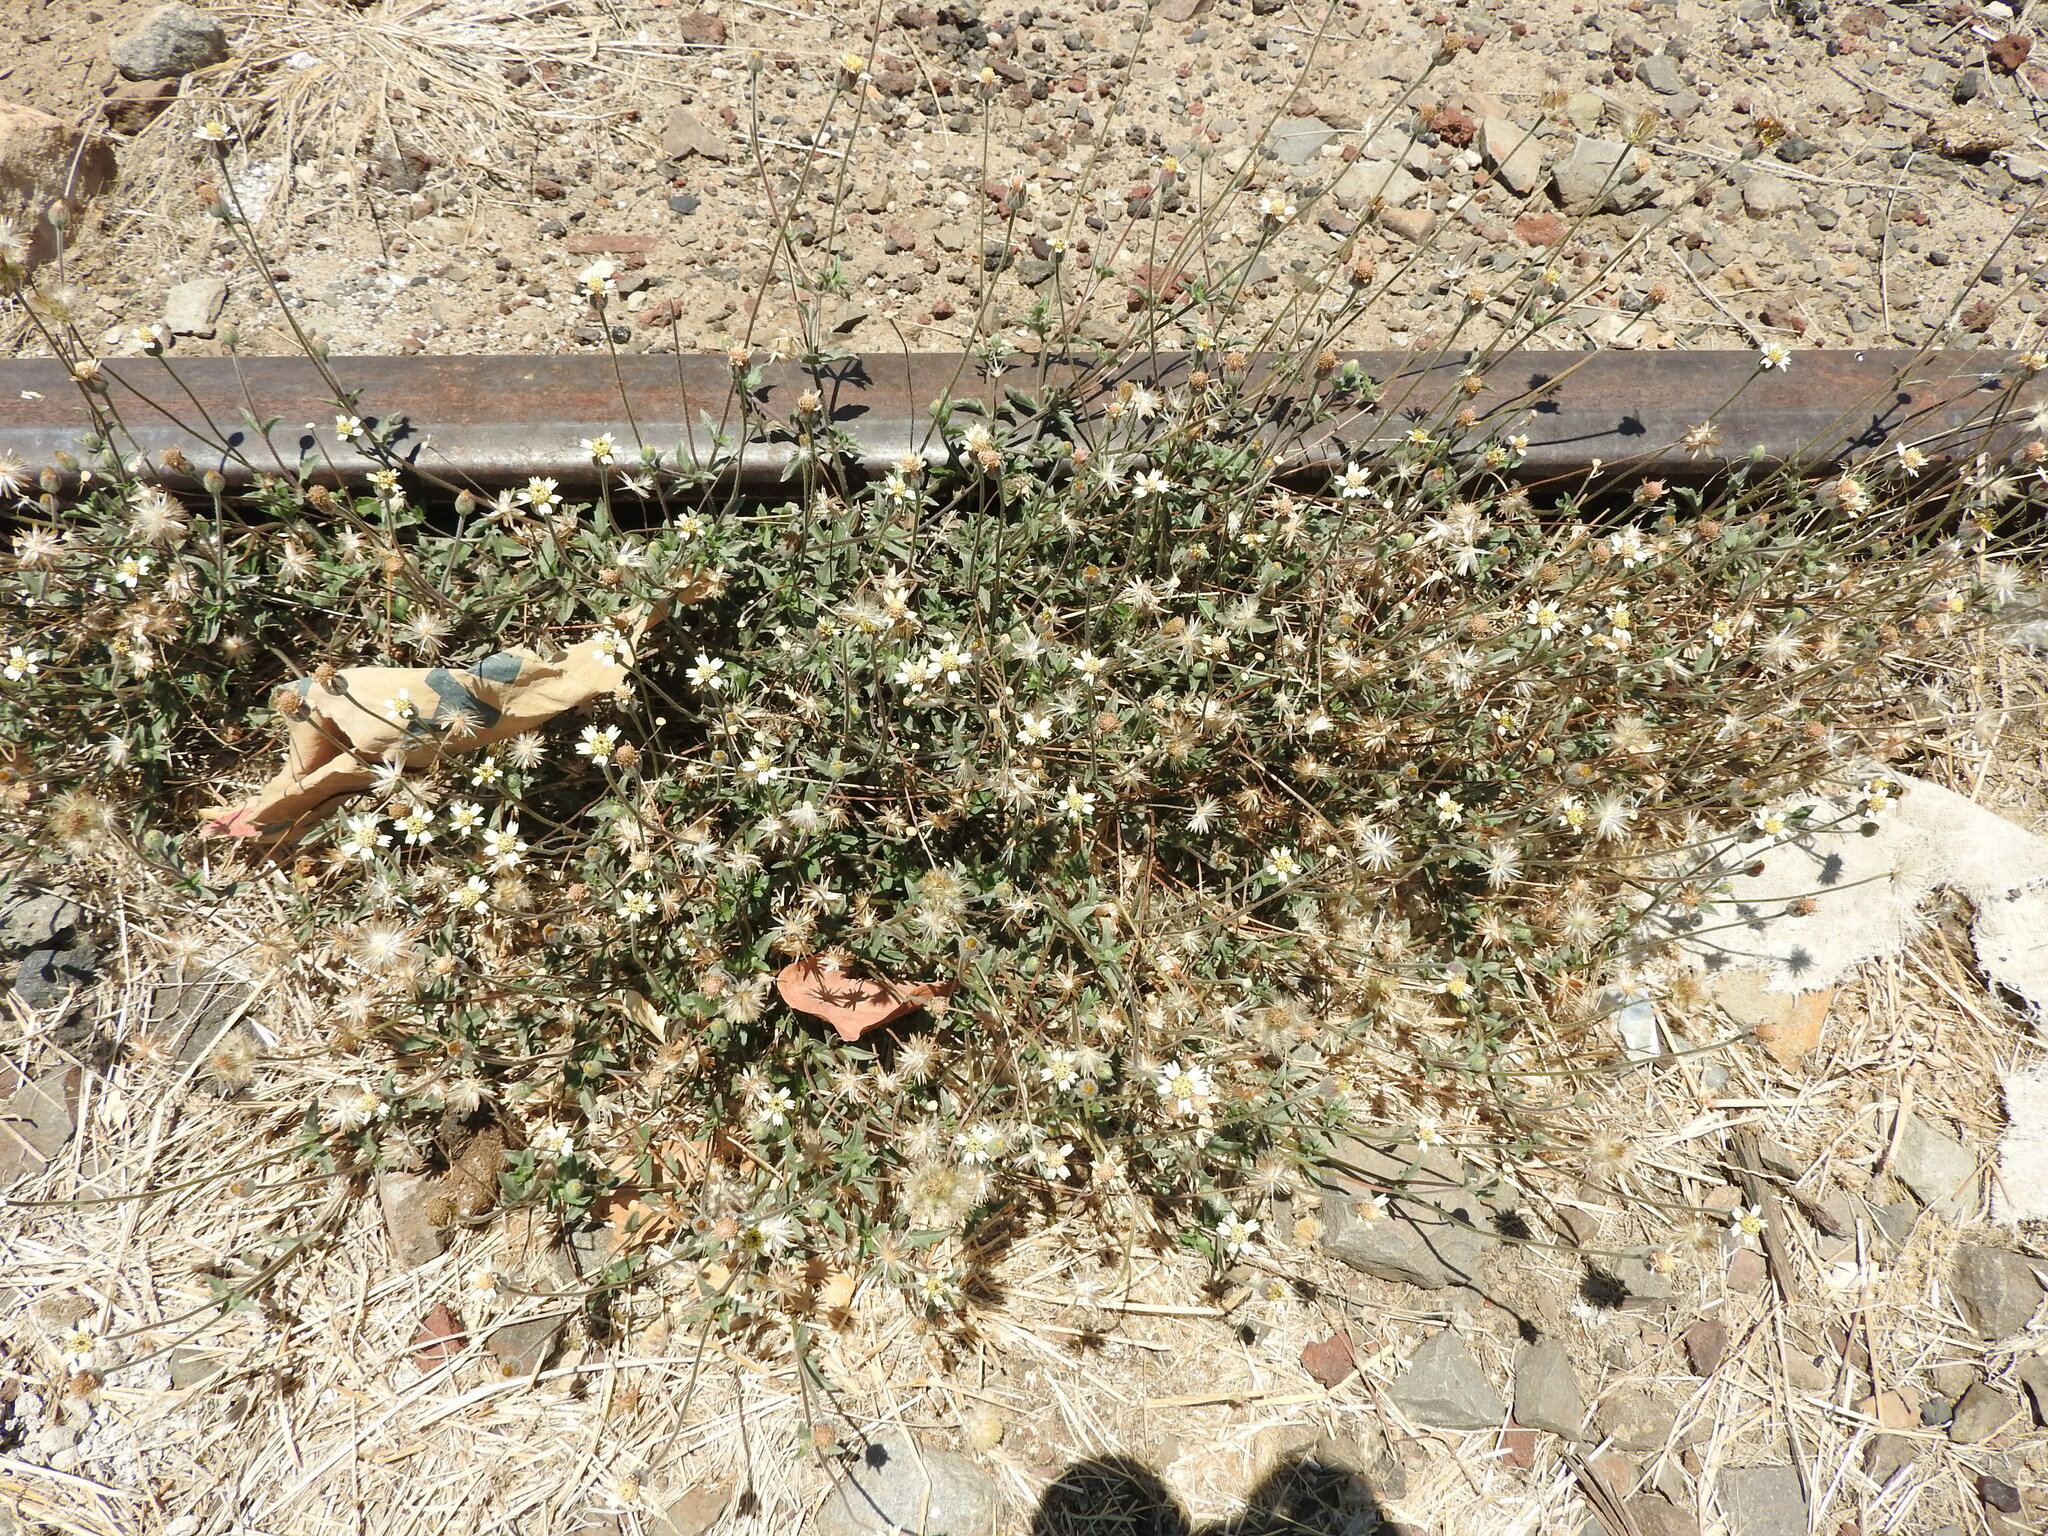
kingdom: Plantae
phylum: Tracheophyta
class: Magnoliopsida
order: Asterales
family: Asteraceae
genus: Tridax
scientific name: Tridax procumbens
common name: Coatbuttons
